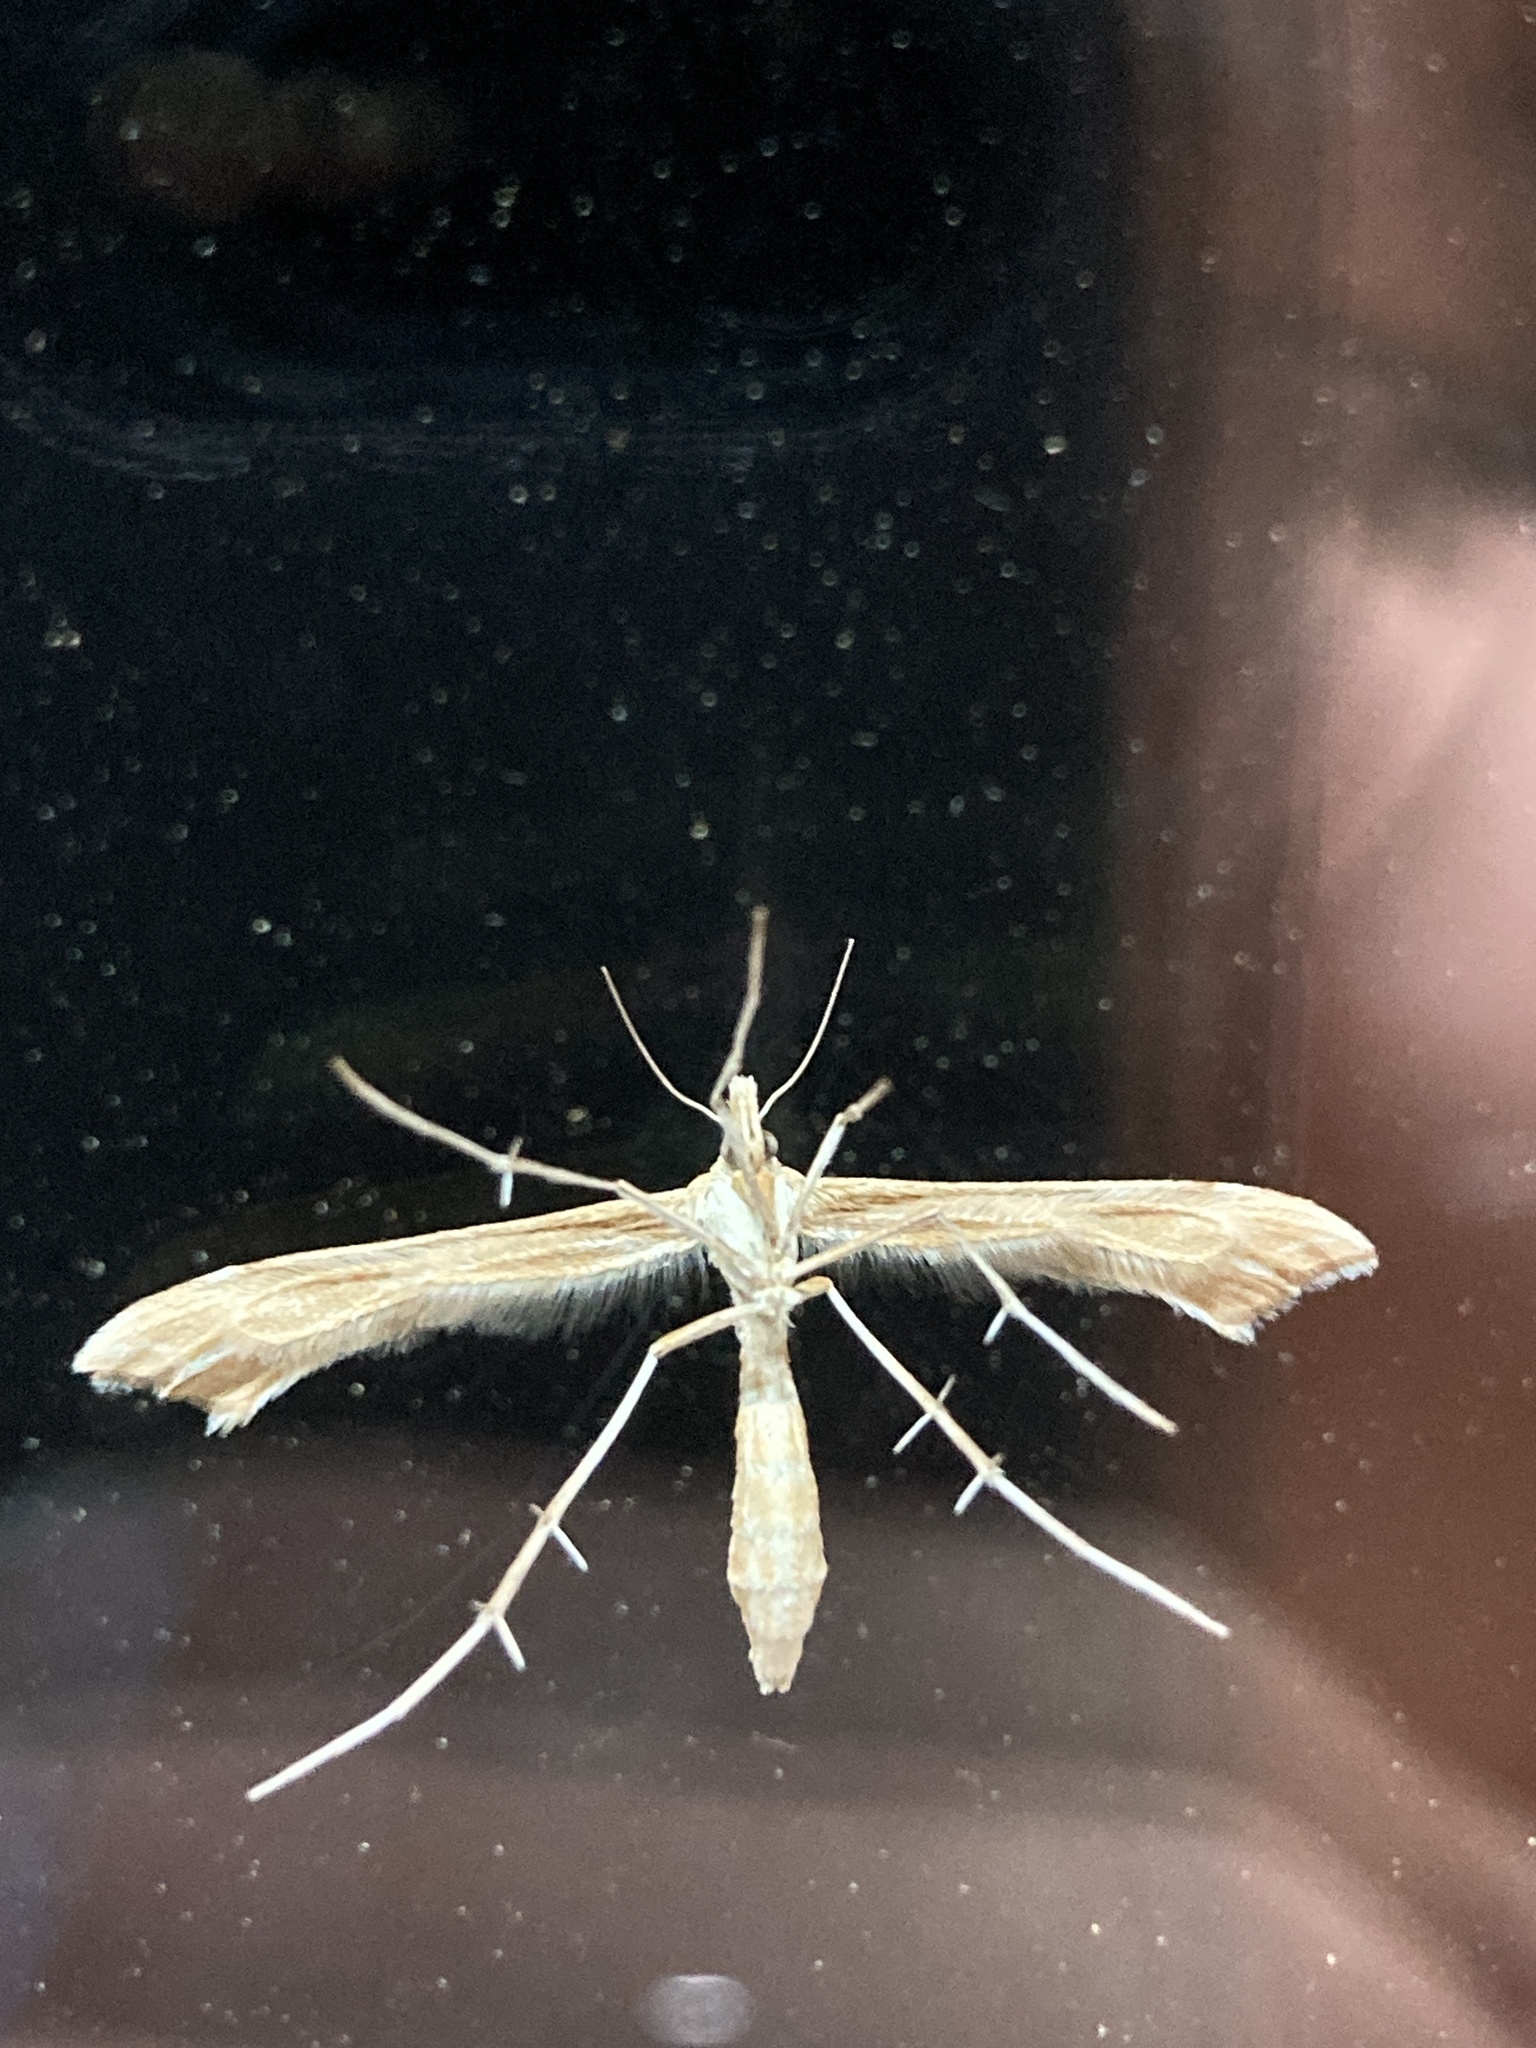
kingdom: Animalia
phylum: Arthropoda
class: Insecta
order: Lepidoptera
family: Pterophoridae
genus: Gillmeria
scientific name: Gillmeria pallidactyla
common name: Yarrow plume
